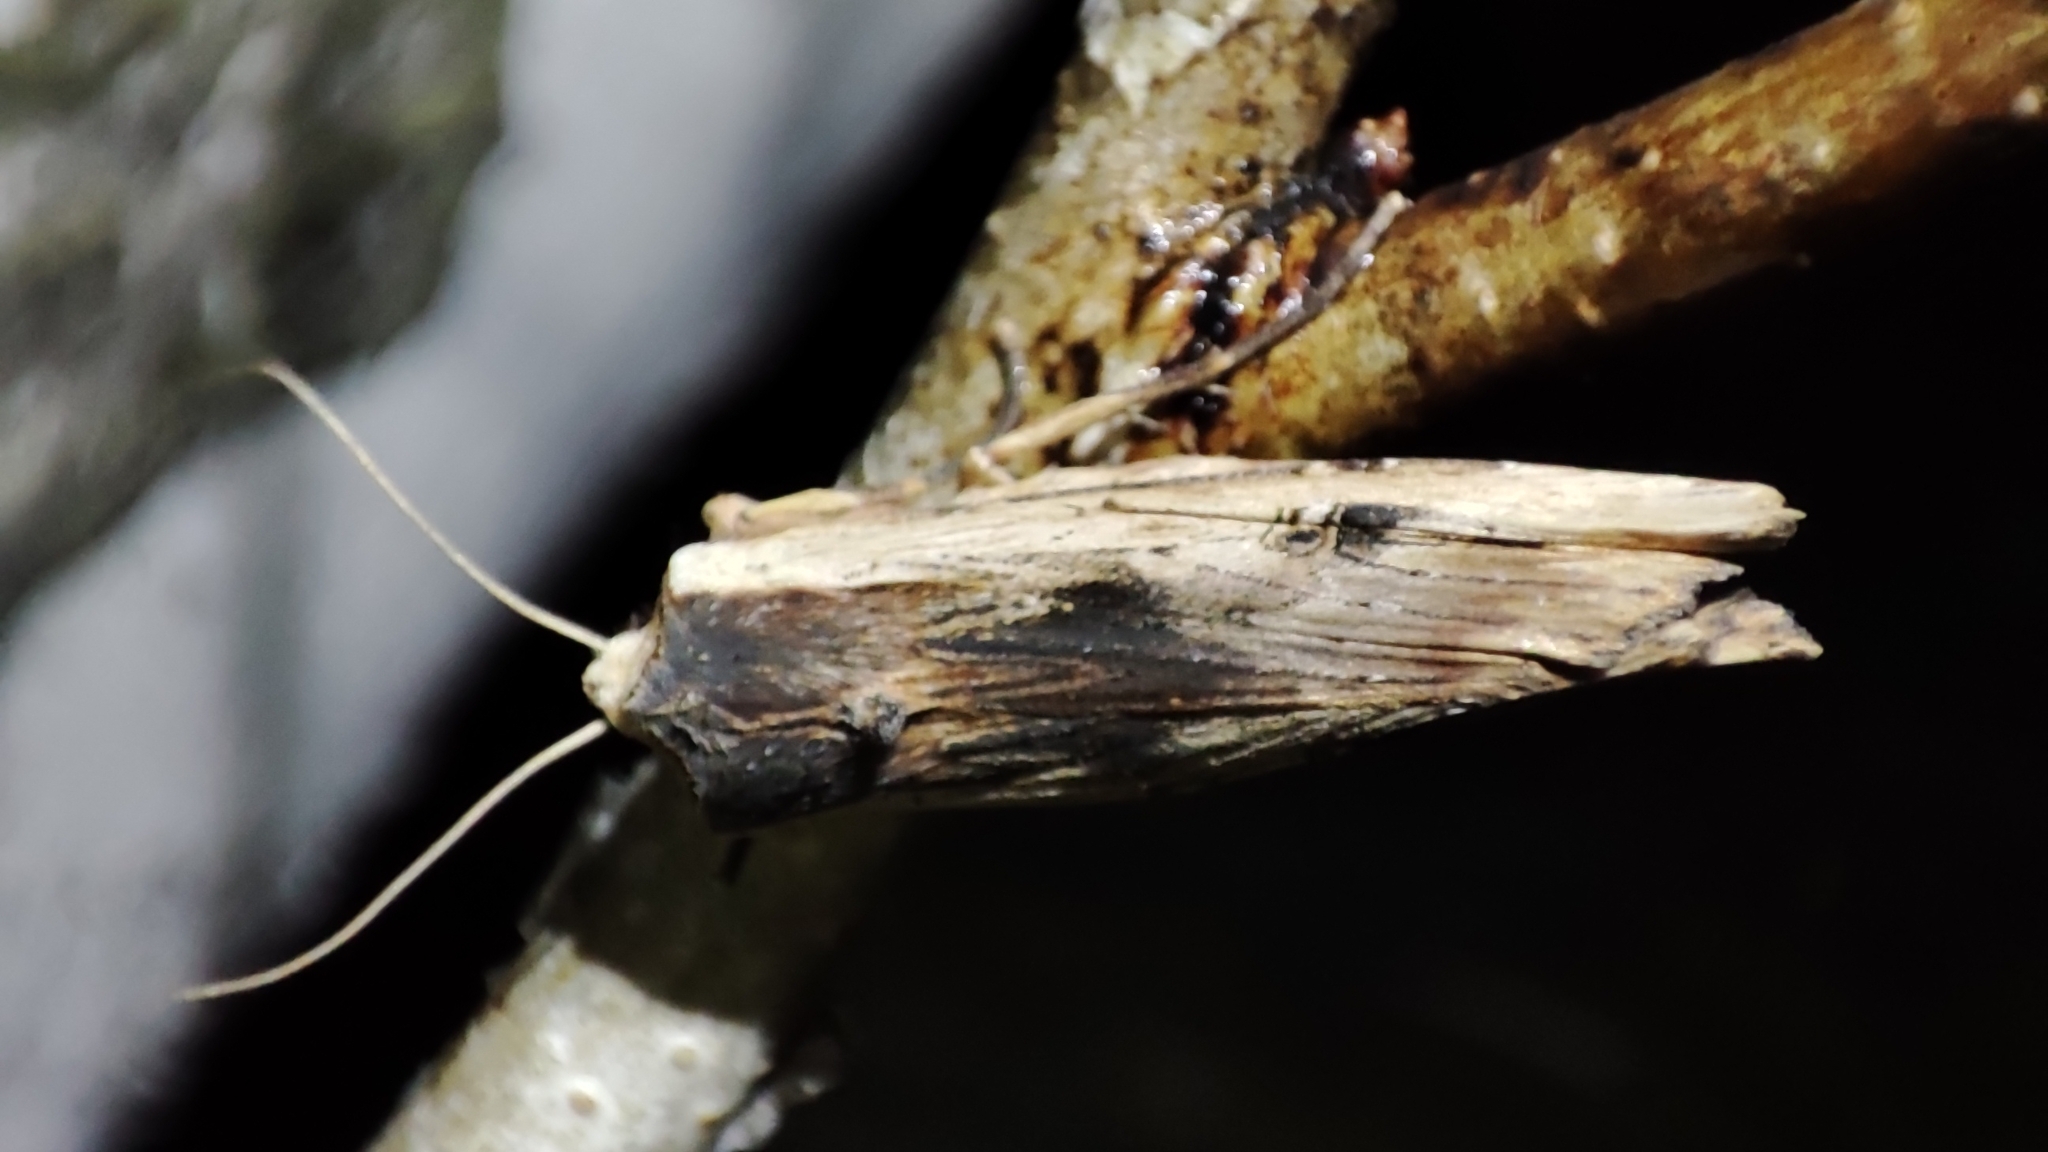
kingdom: Animalia
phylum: Arthropoda
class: Insecta
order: Lepidoptera
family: Noctuidae
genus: Xylena
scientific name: Xylena vetusta
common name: Red sword-grass
